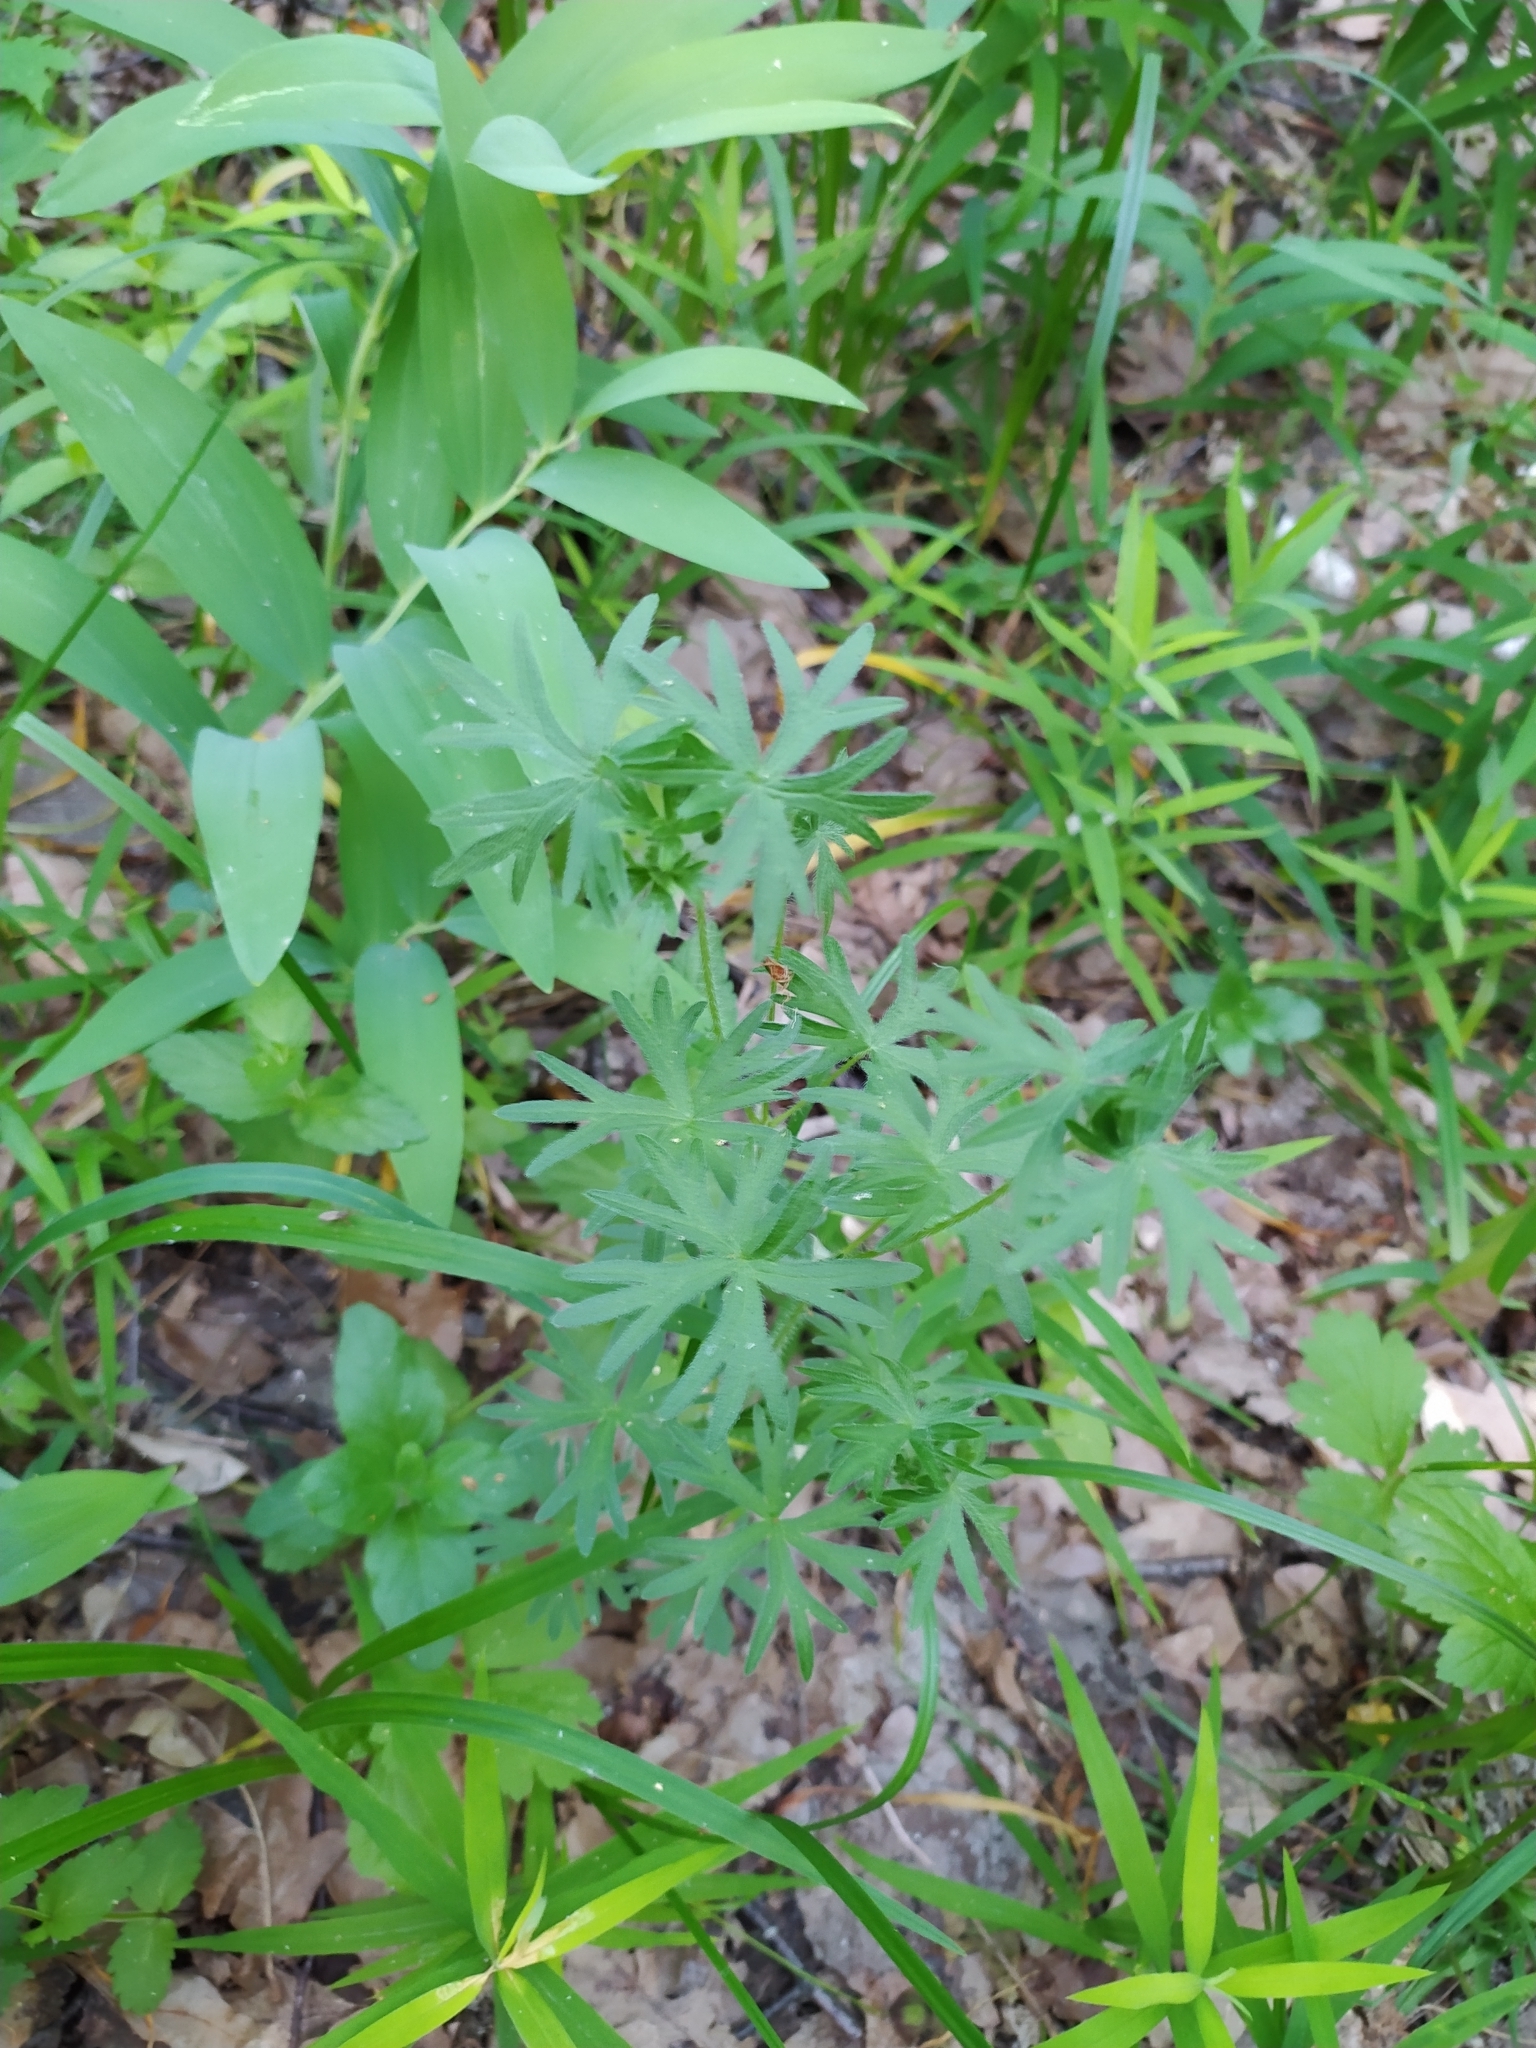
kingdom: Plantae
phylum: Tracheophyta
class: Magnoliopsida
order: Geraniales
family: Geraniaceae
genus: Geranium
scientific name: Geranium sanguineum
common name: Bloody crane's-bill
